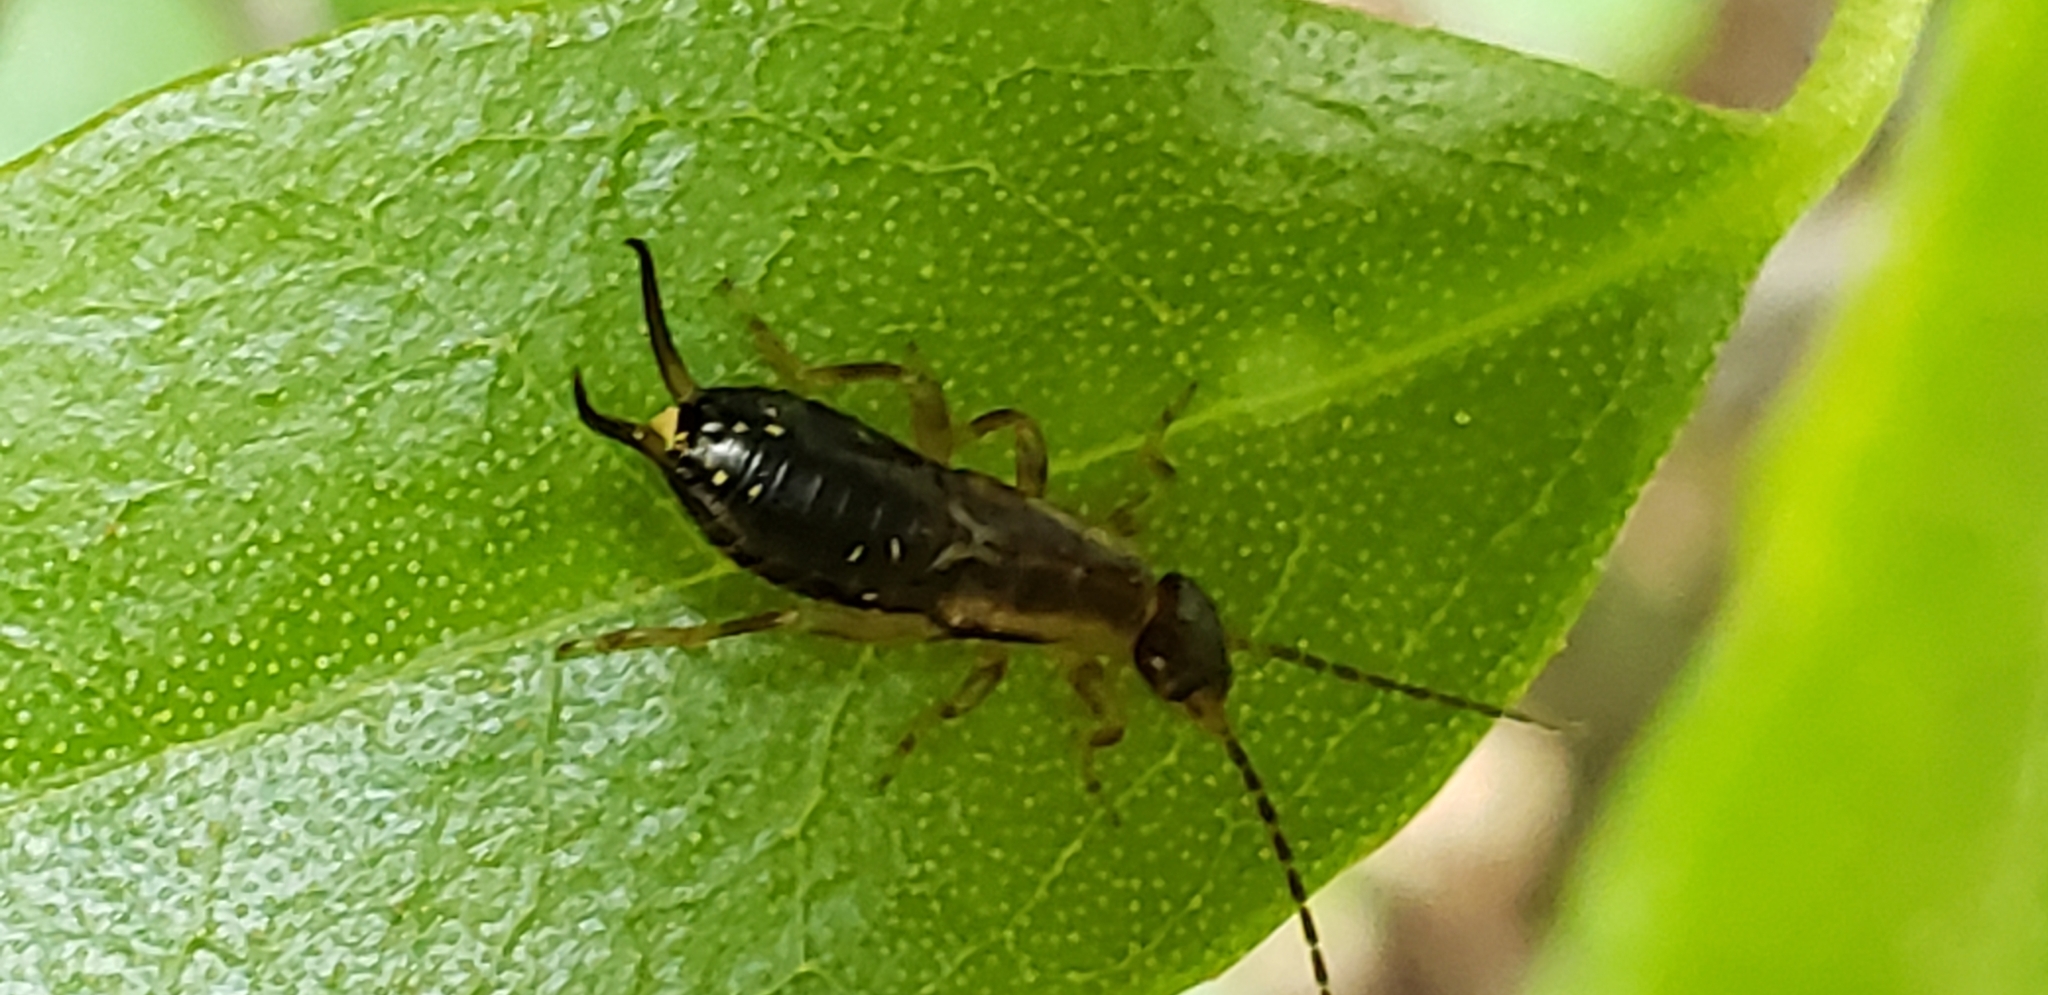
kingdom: Animalia
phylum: Arthropoda
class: Insecta
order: Dermaptera
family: Forficulidae
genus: Forficula
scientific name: Forficula
